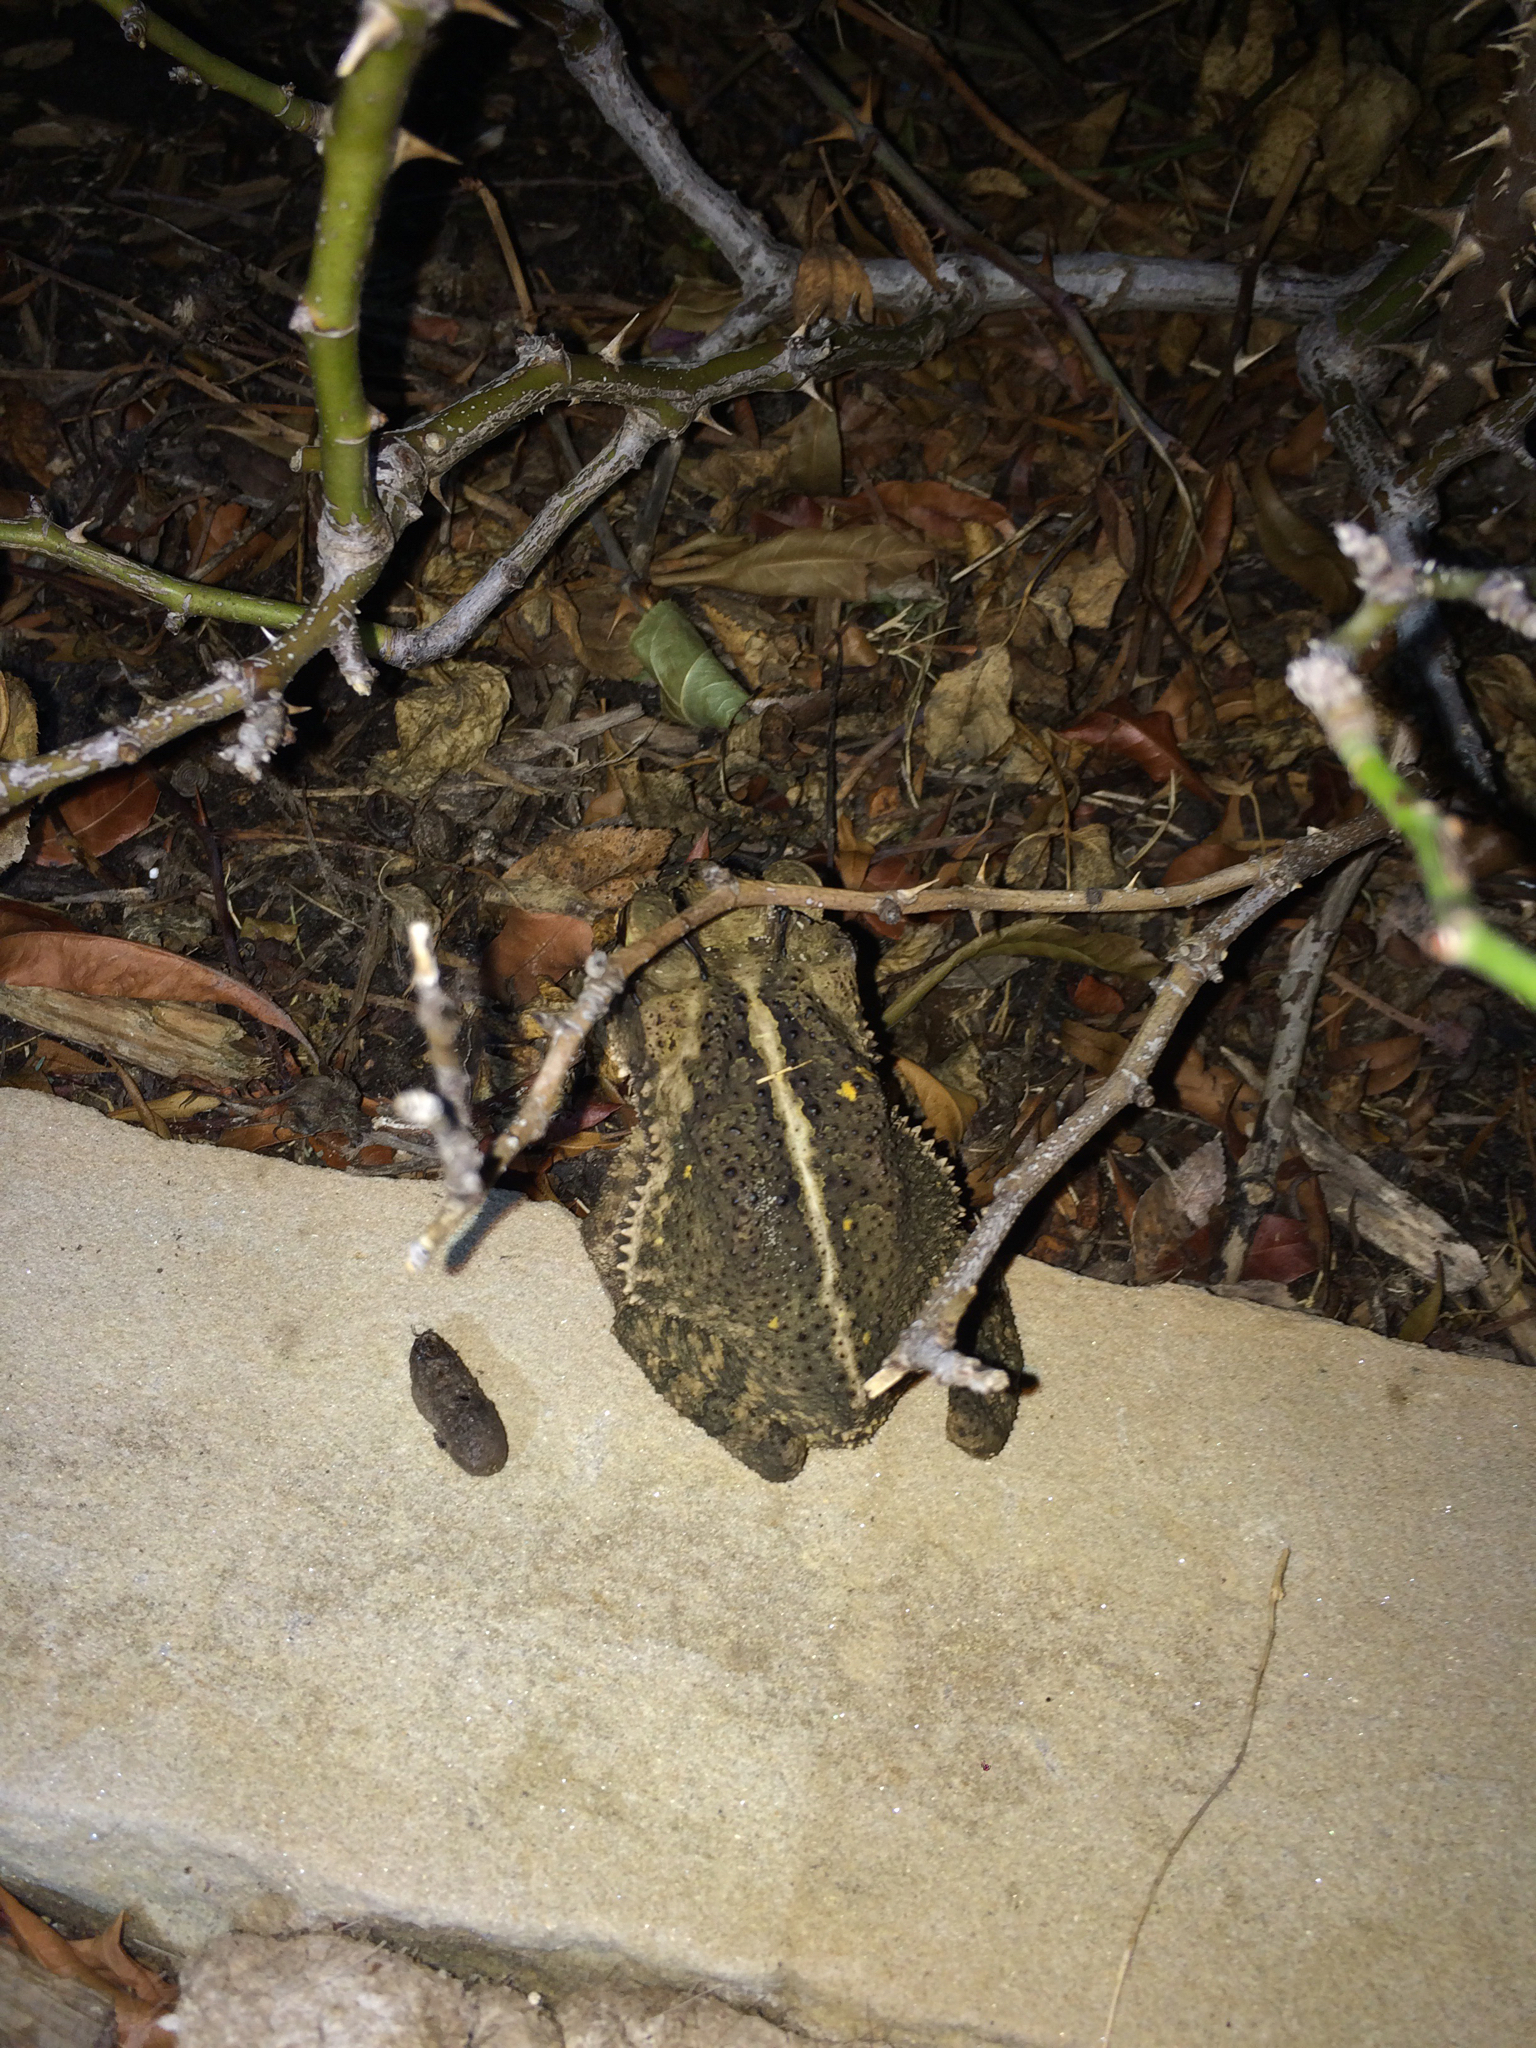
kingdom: Animalia
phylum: Chordata
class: Amphibia
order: Anura
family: Bufonidae
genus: Incilius
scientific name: Incilius nebulifer
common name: Gulf coast toad
